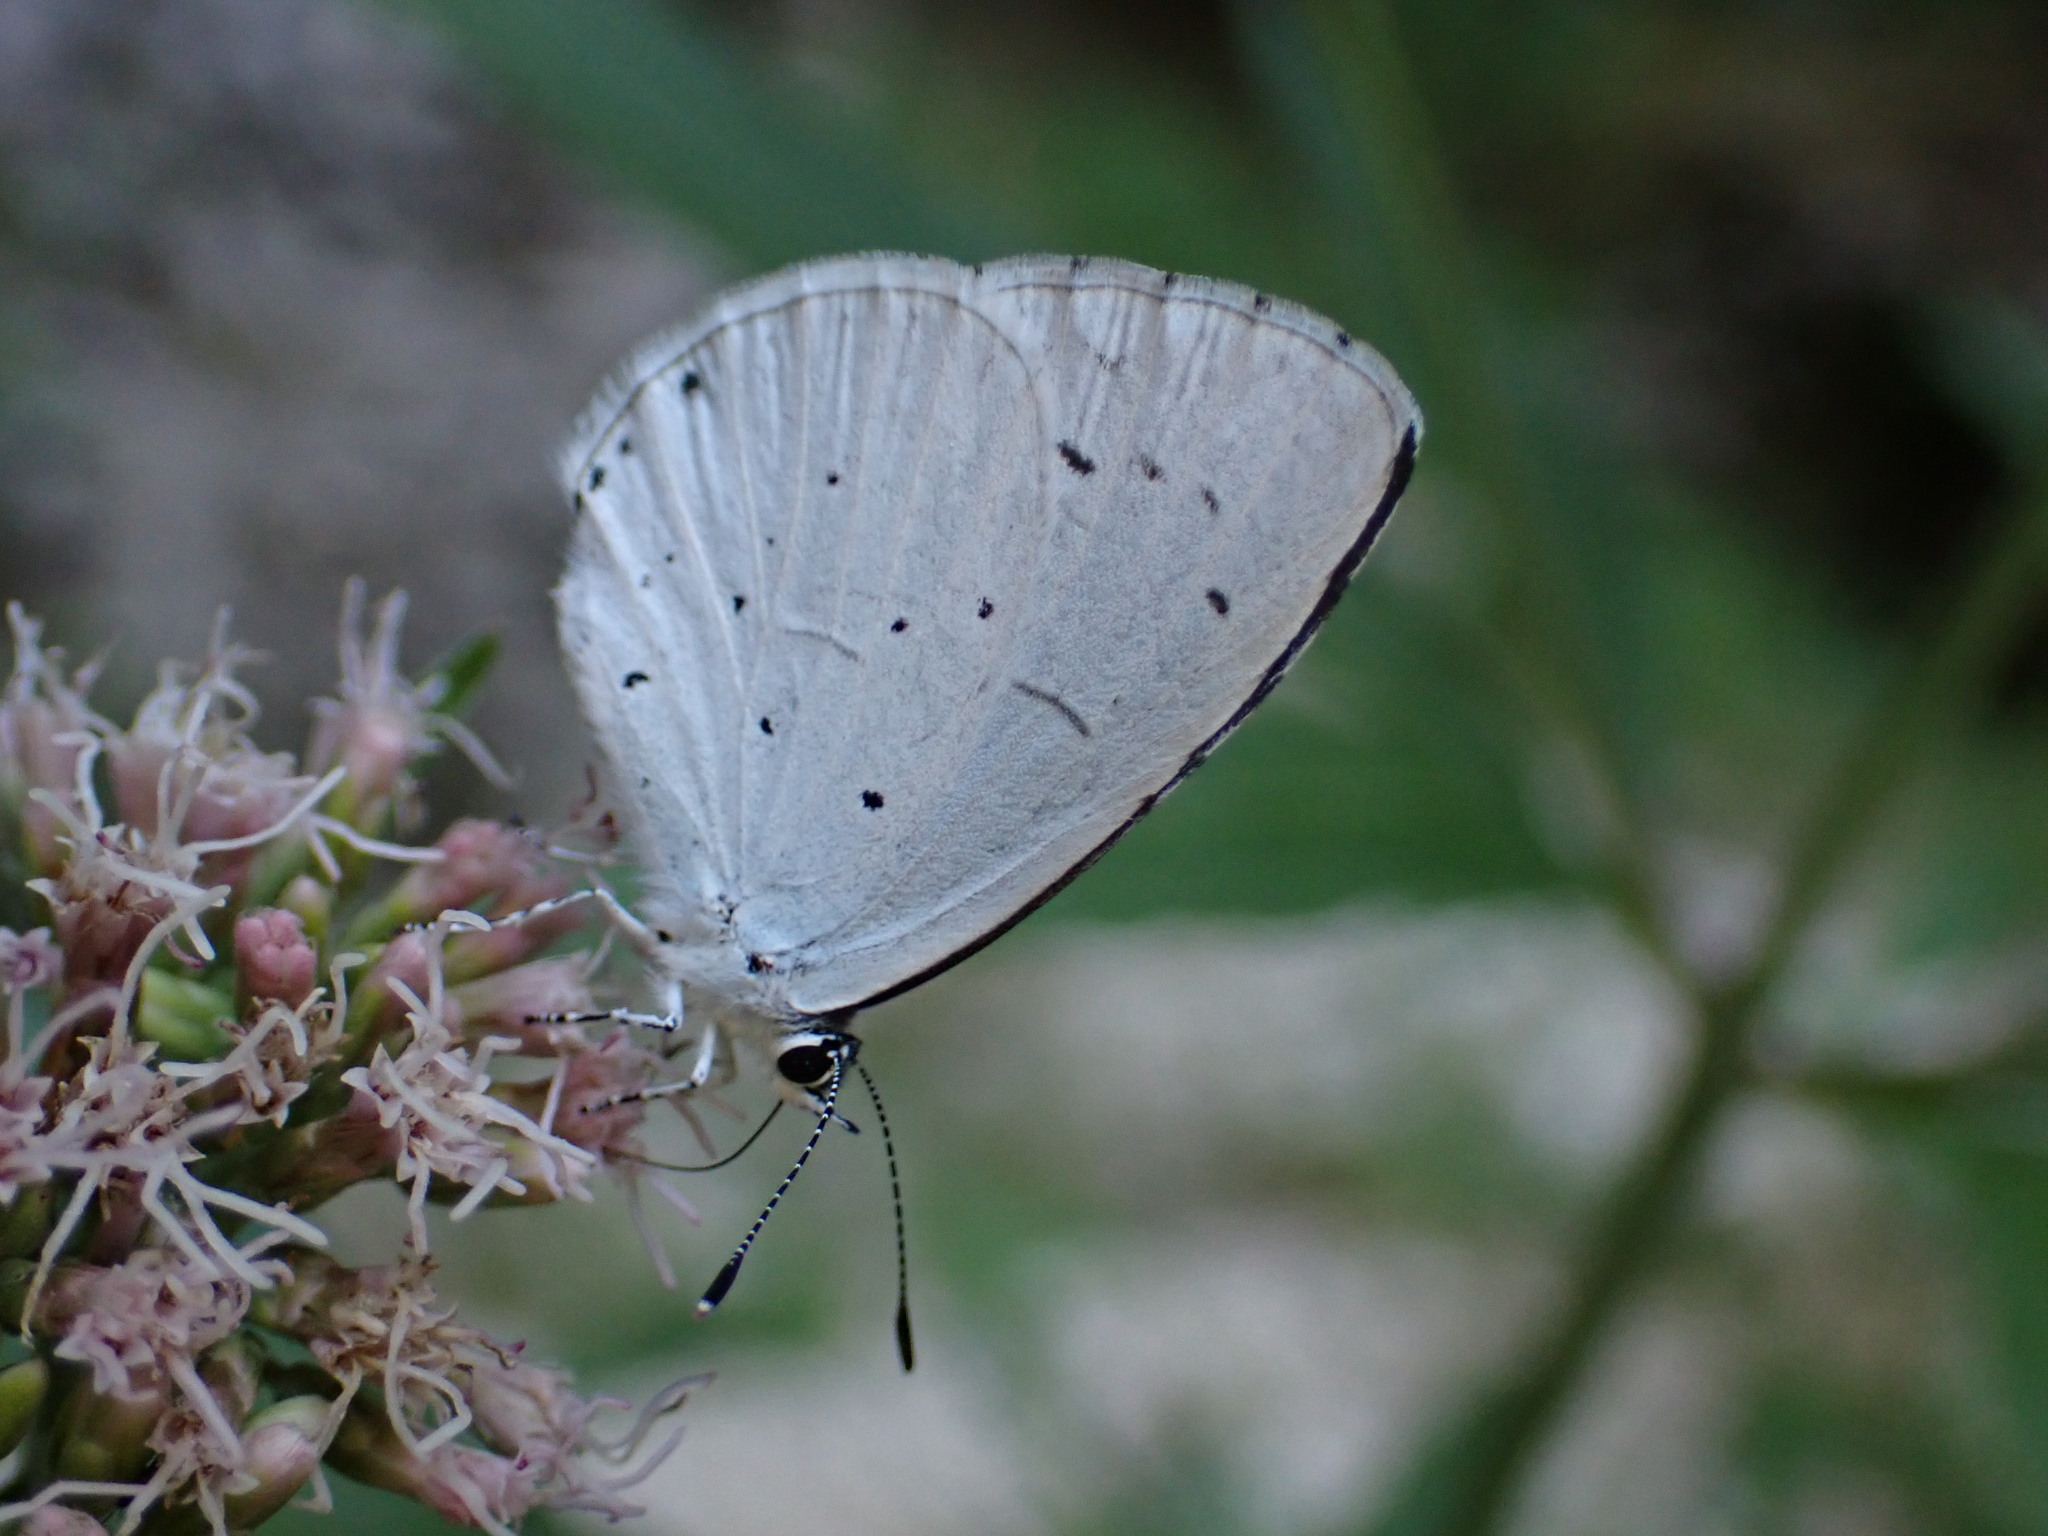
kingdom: Animalia
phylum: Arthropoda
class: Insecta
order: Lepidoptera
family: Lycaenidae
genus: Celastrina
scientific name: Celastrina argiolus
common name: Holly blue
